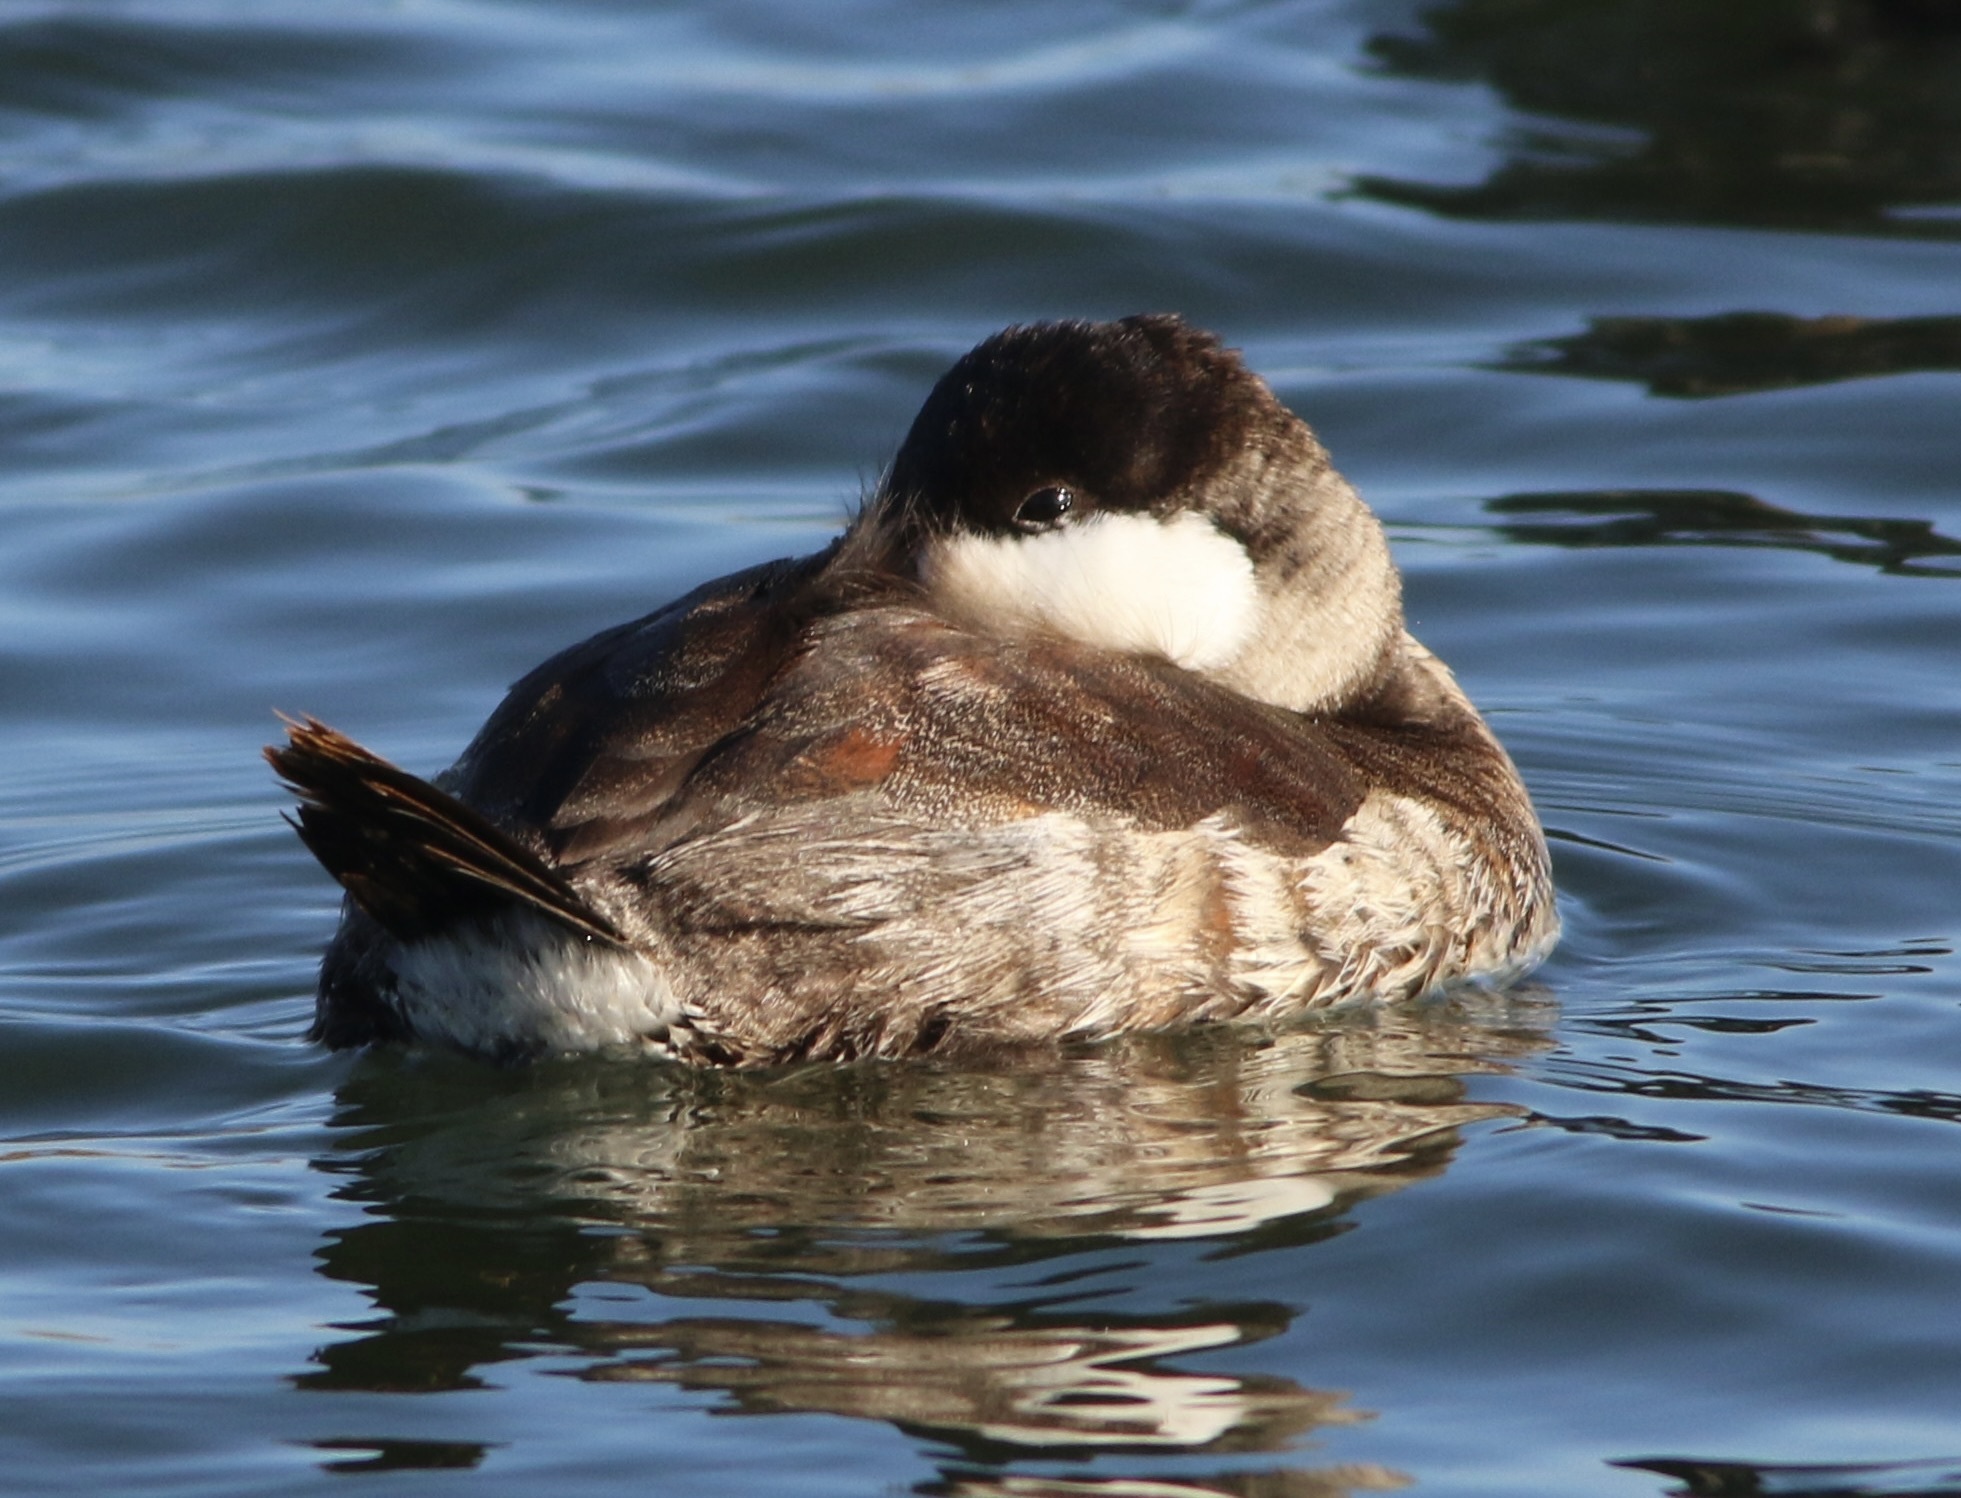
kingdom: Animalia
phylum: Chordata
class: Aves
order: Anseriformes
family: Anatidae
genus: Oxyura
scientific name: Oxyura jamaicensis
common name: Ruddy duck
